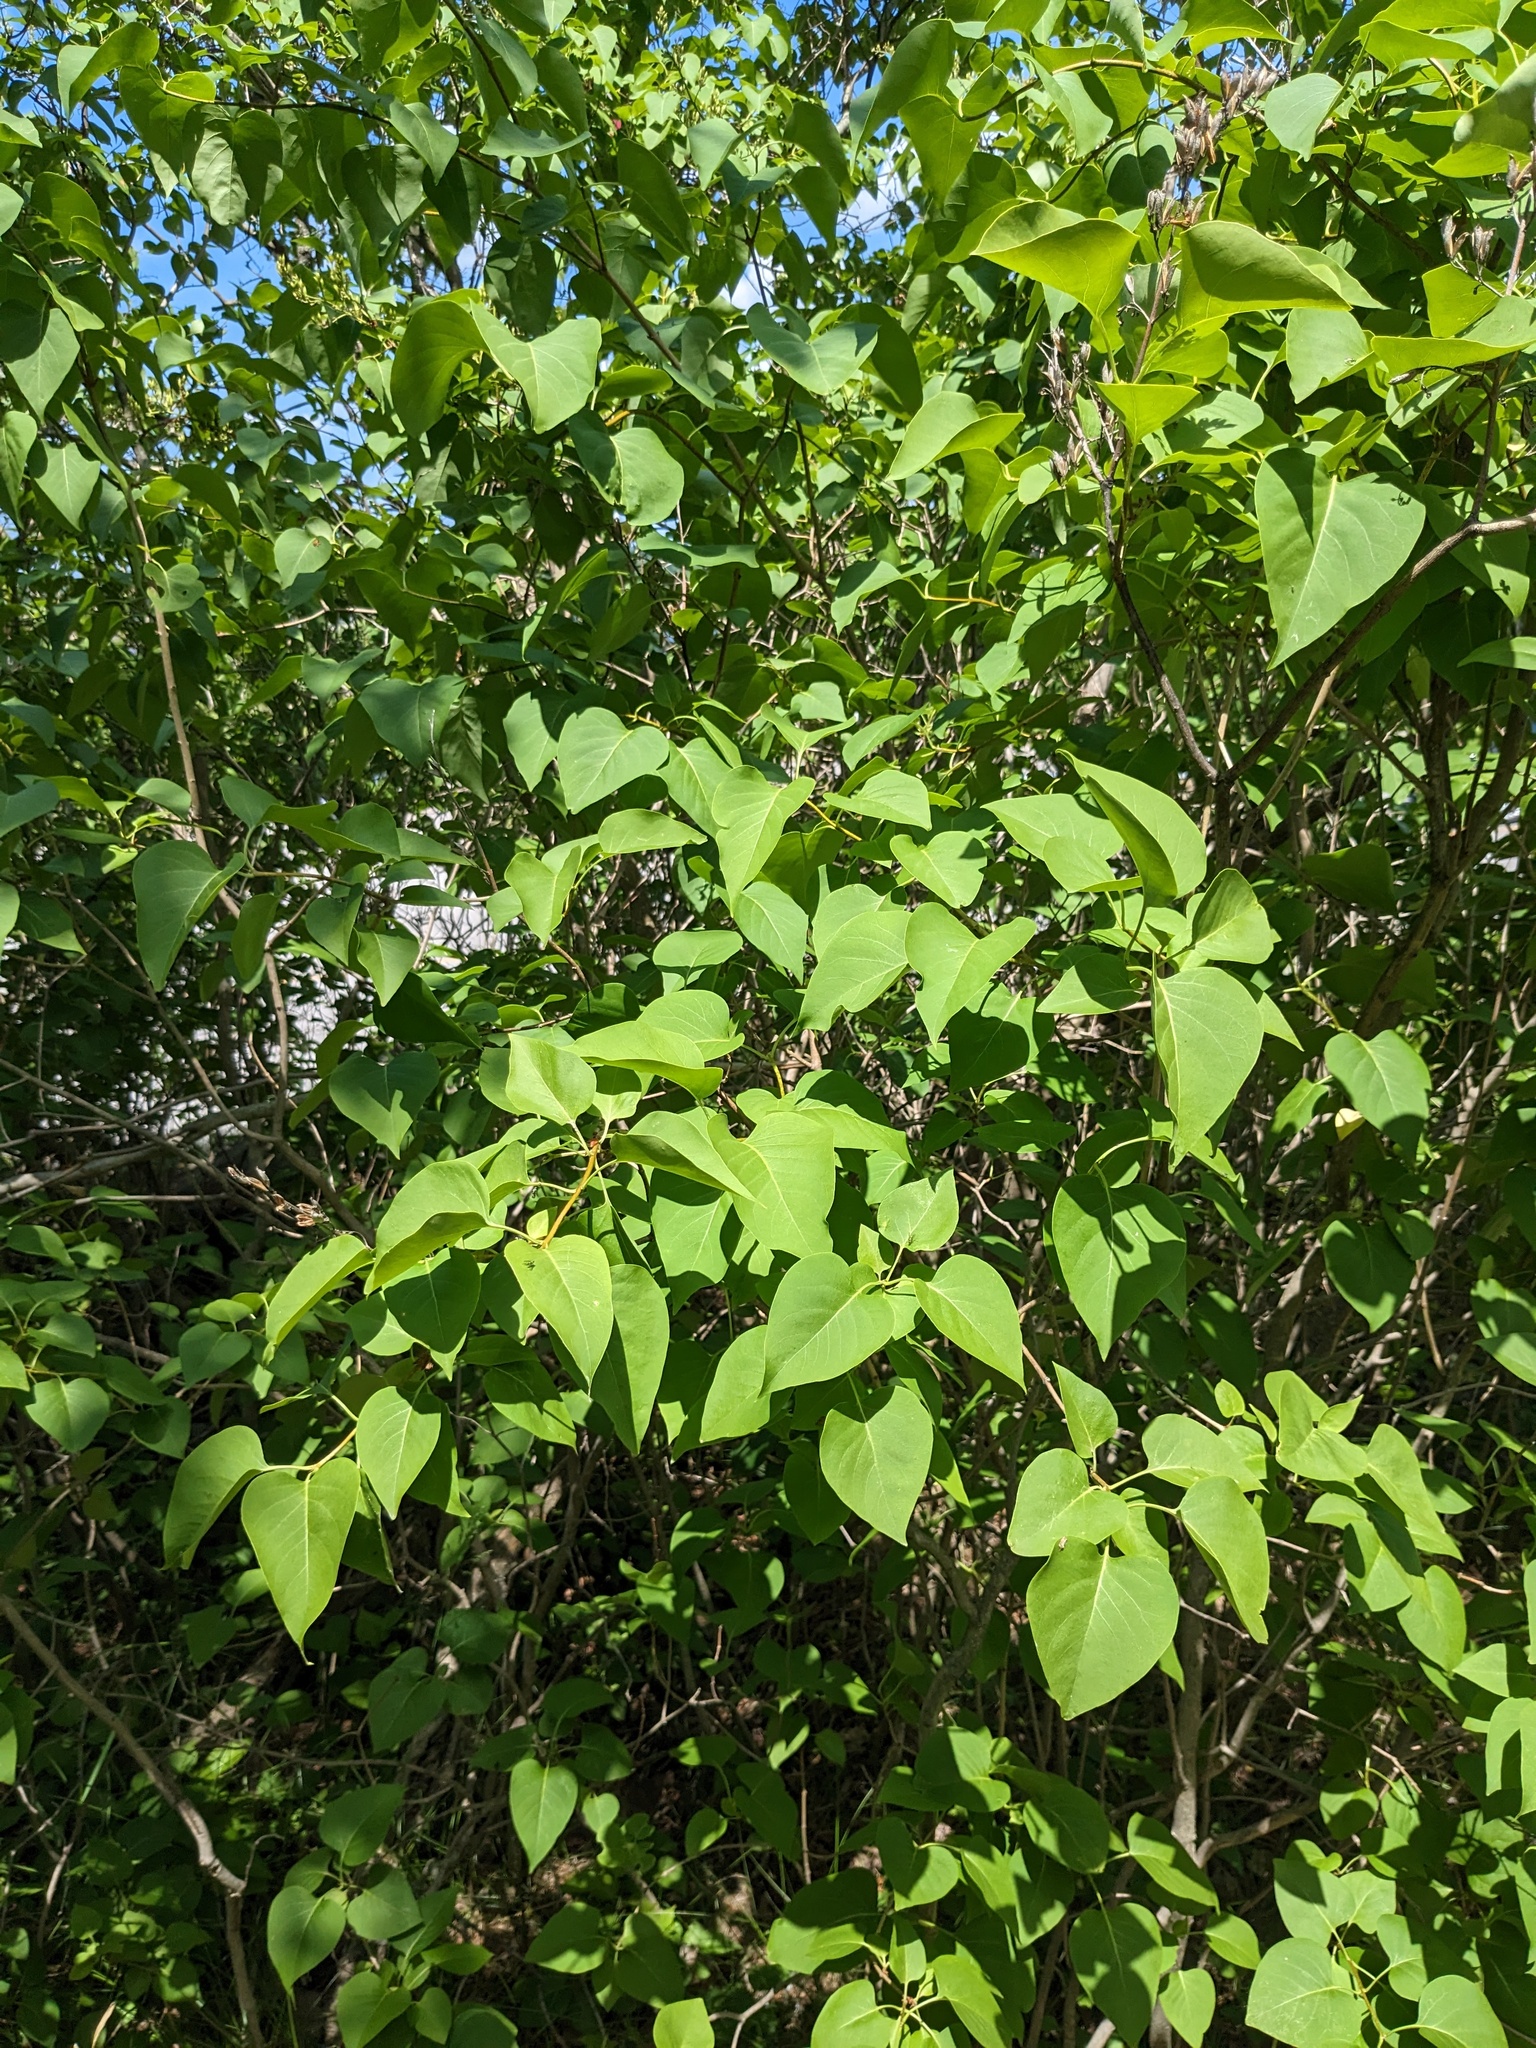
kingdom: Plantae
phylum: Tracheophyta
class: Magnoliopsida
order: Lamiales
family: Oleaceae
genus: Syringa
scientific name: Syringa vulgaris
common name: Common lilac
